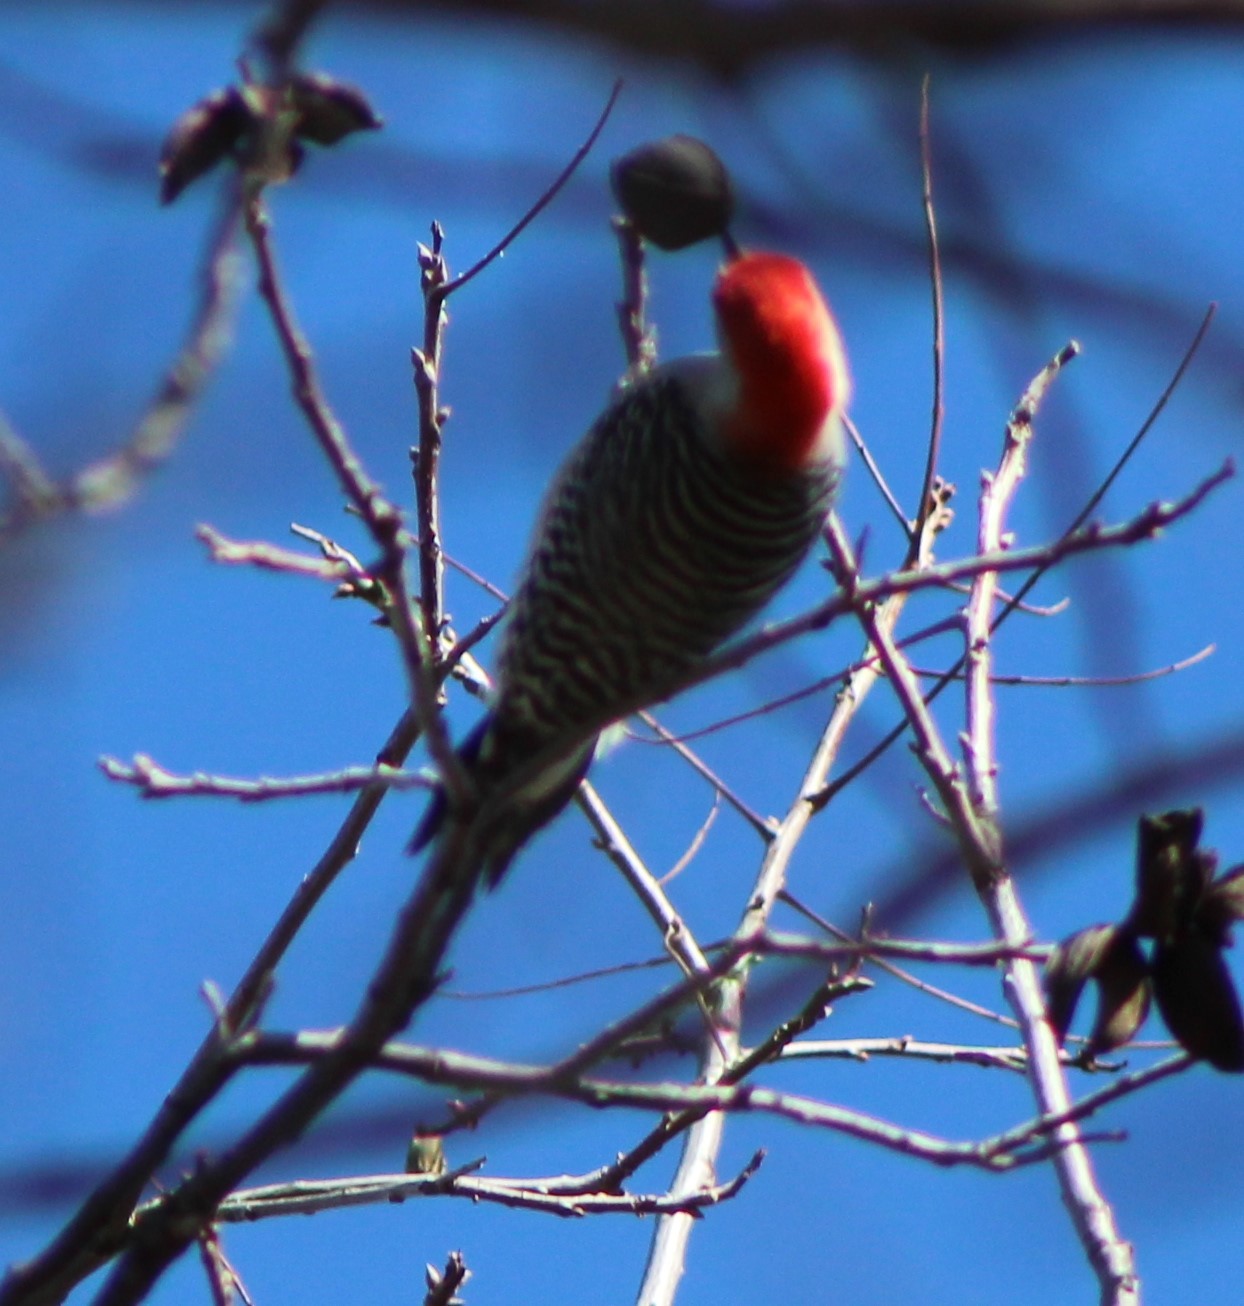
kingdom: Animalia
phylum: Chordata
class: Aves
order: Piciformes
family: Picidae
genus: Melanerpes
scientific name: Melanerpes carolinus
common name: Red-bellied woodpecker
